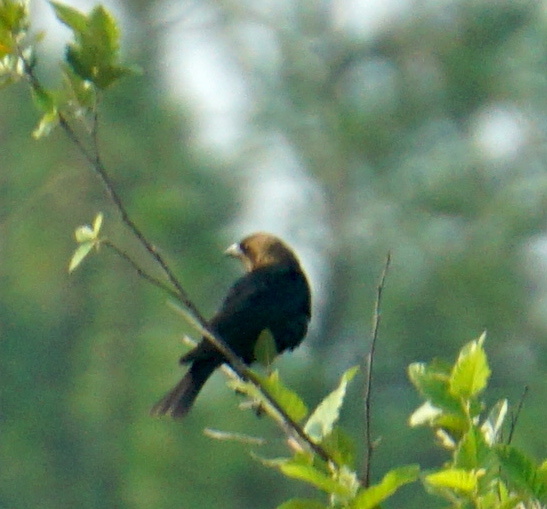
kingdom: Animalia
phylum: Chordata
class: Aves
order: Passeriformes
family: Icteridae
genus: Molothrus
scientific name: Molothrus ater
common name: Brown-headed cowbird
